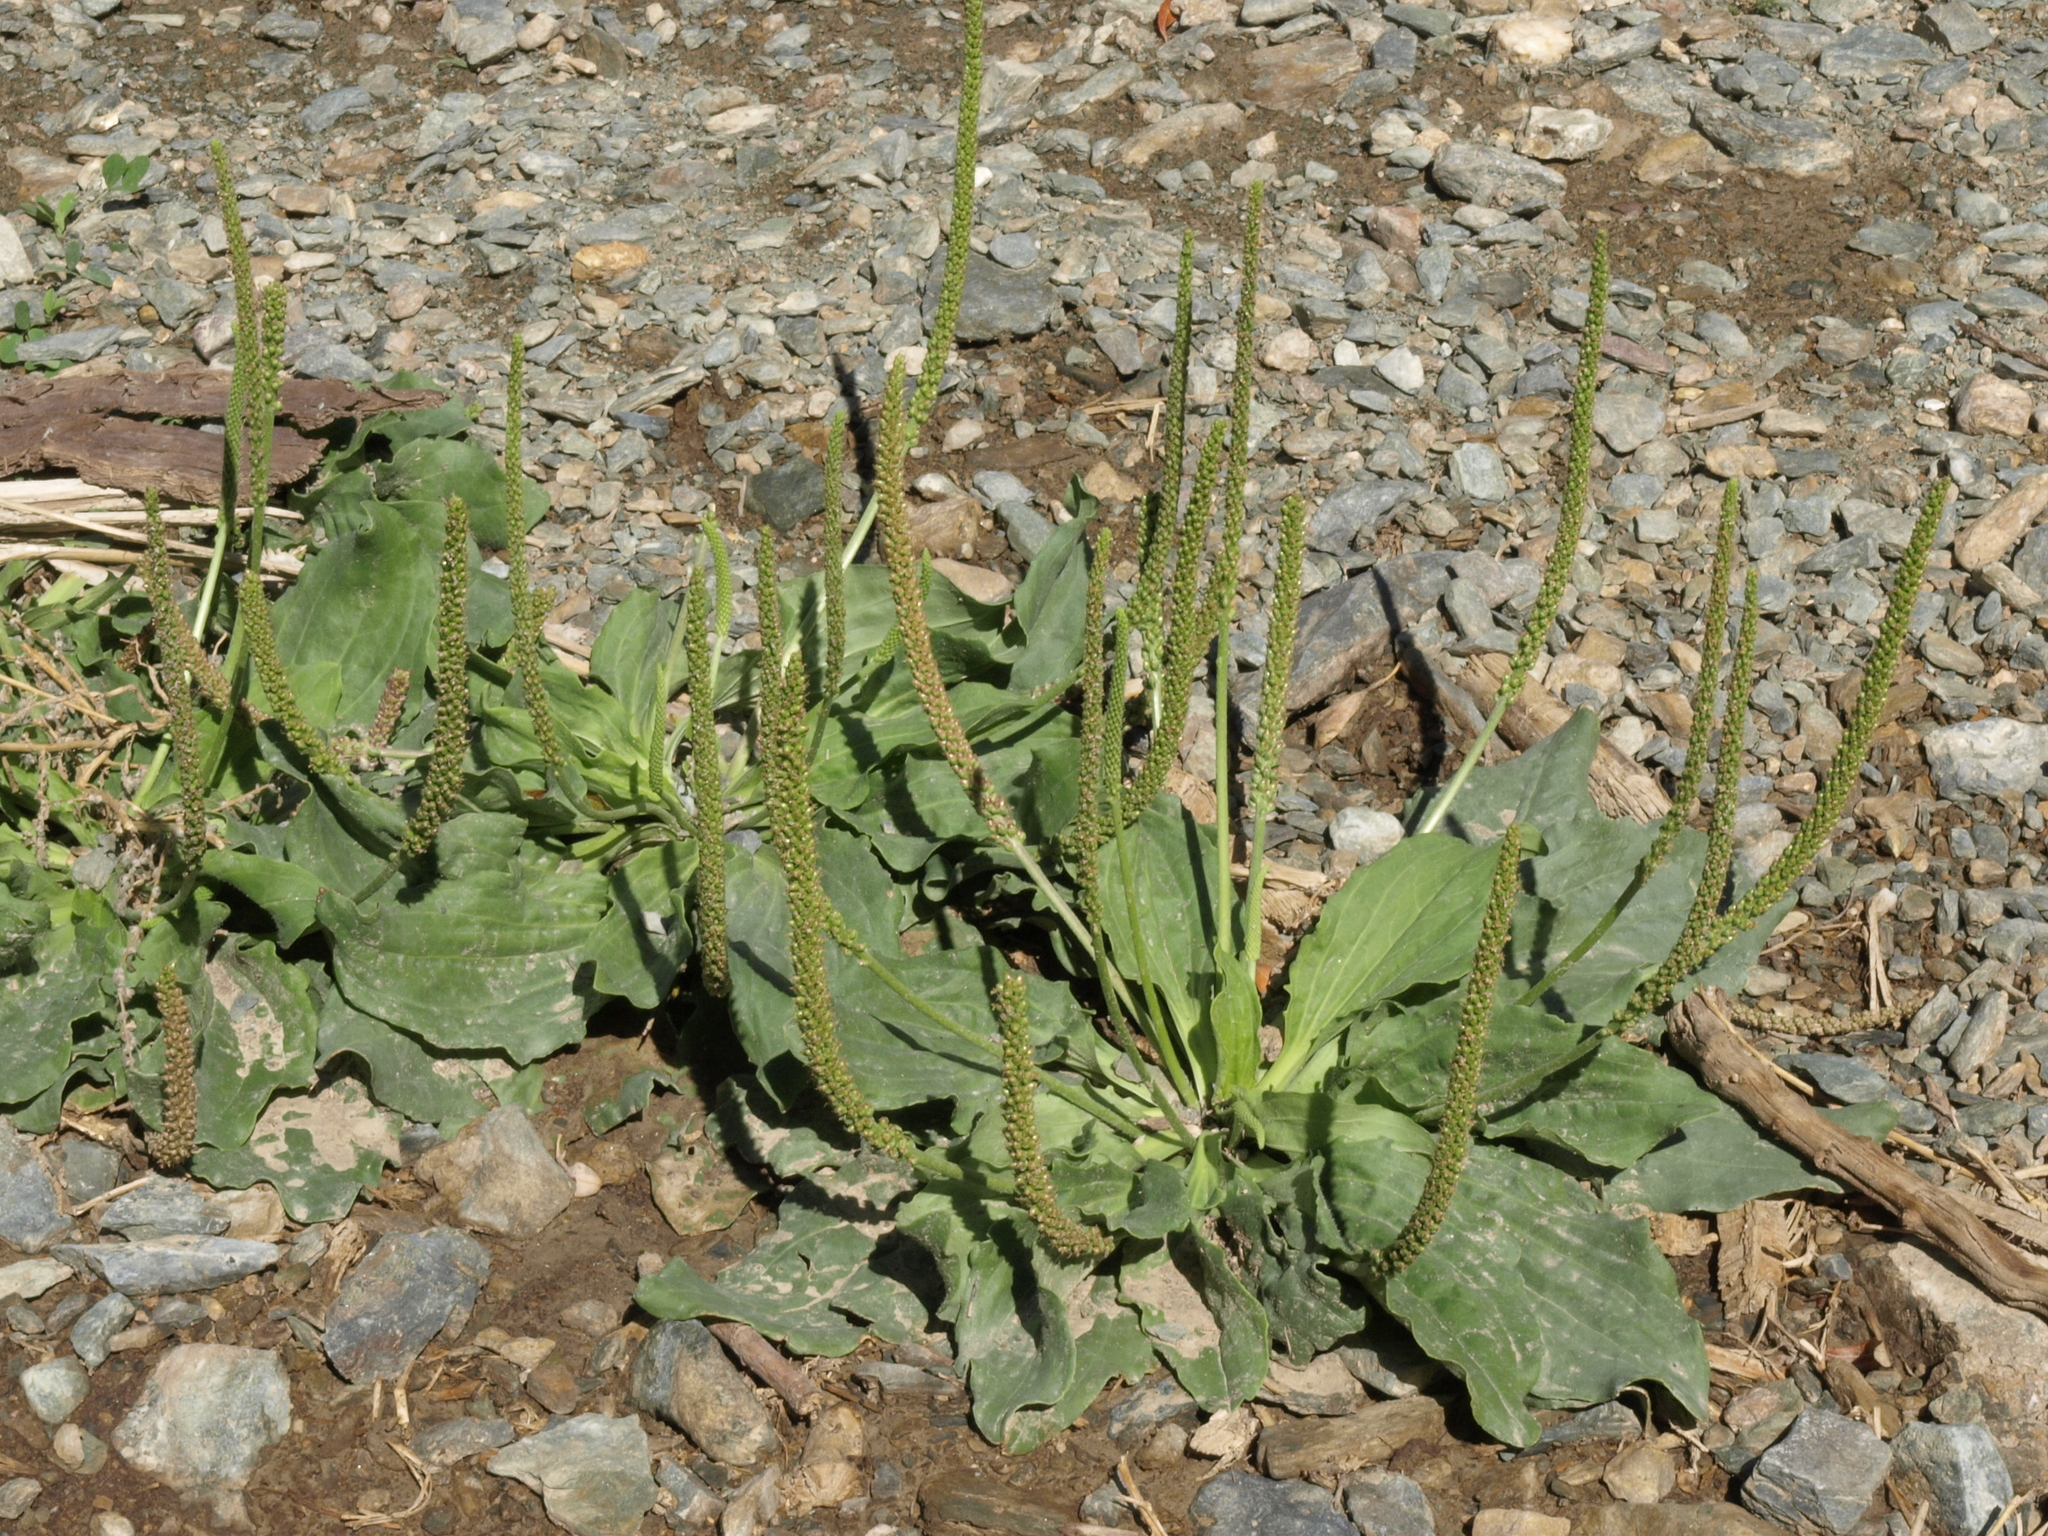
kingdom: Plantae
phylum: Tracheophyta
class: Magnoliopsida
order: Lamiales
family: Plantaginaceae
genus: Plantago
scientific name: Plantago major
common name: Common plantain
